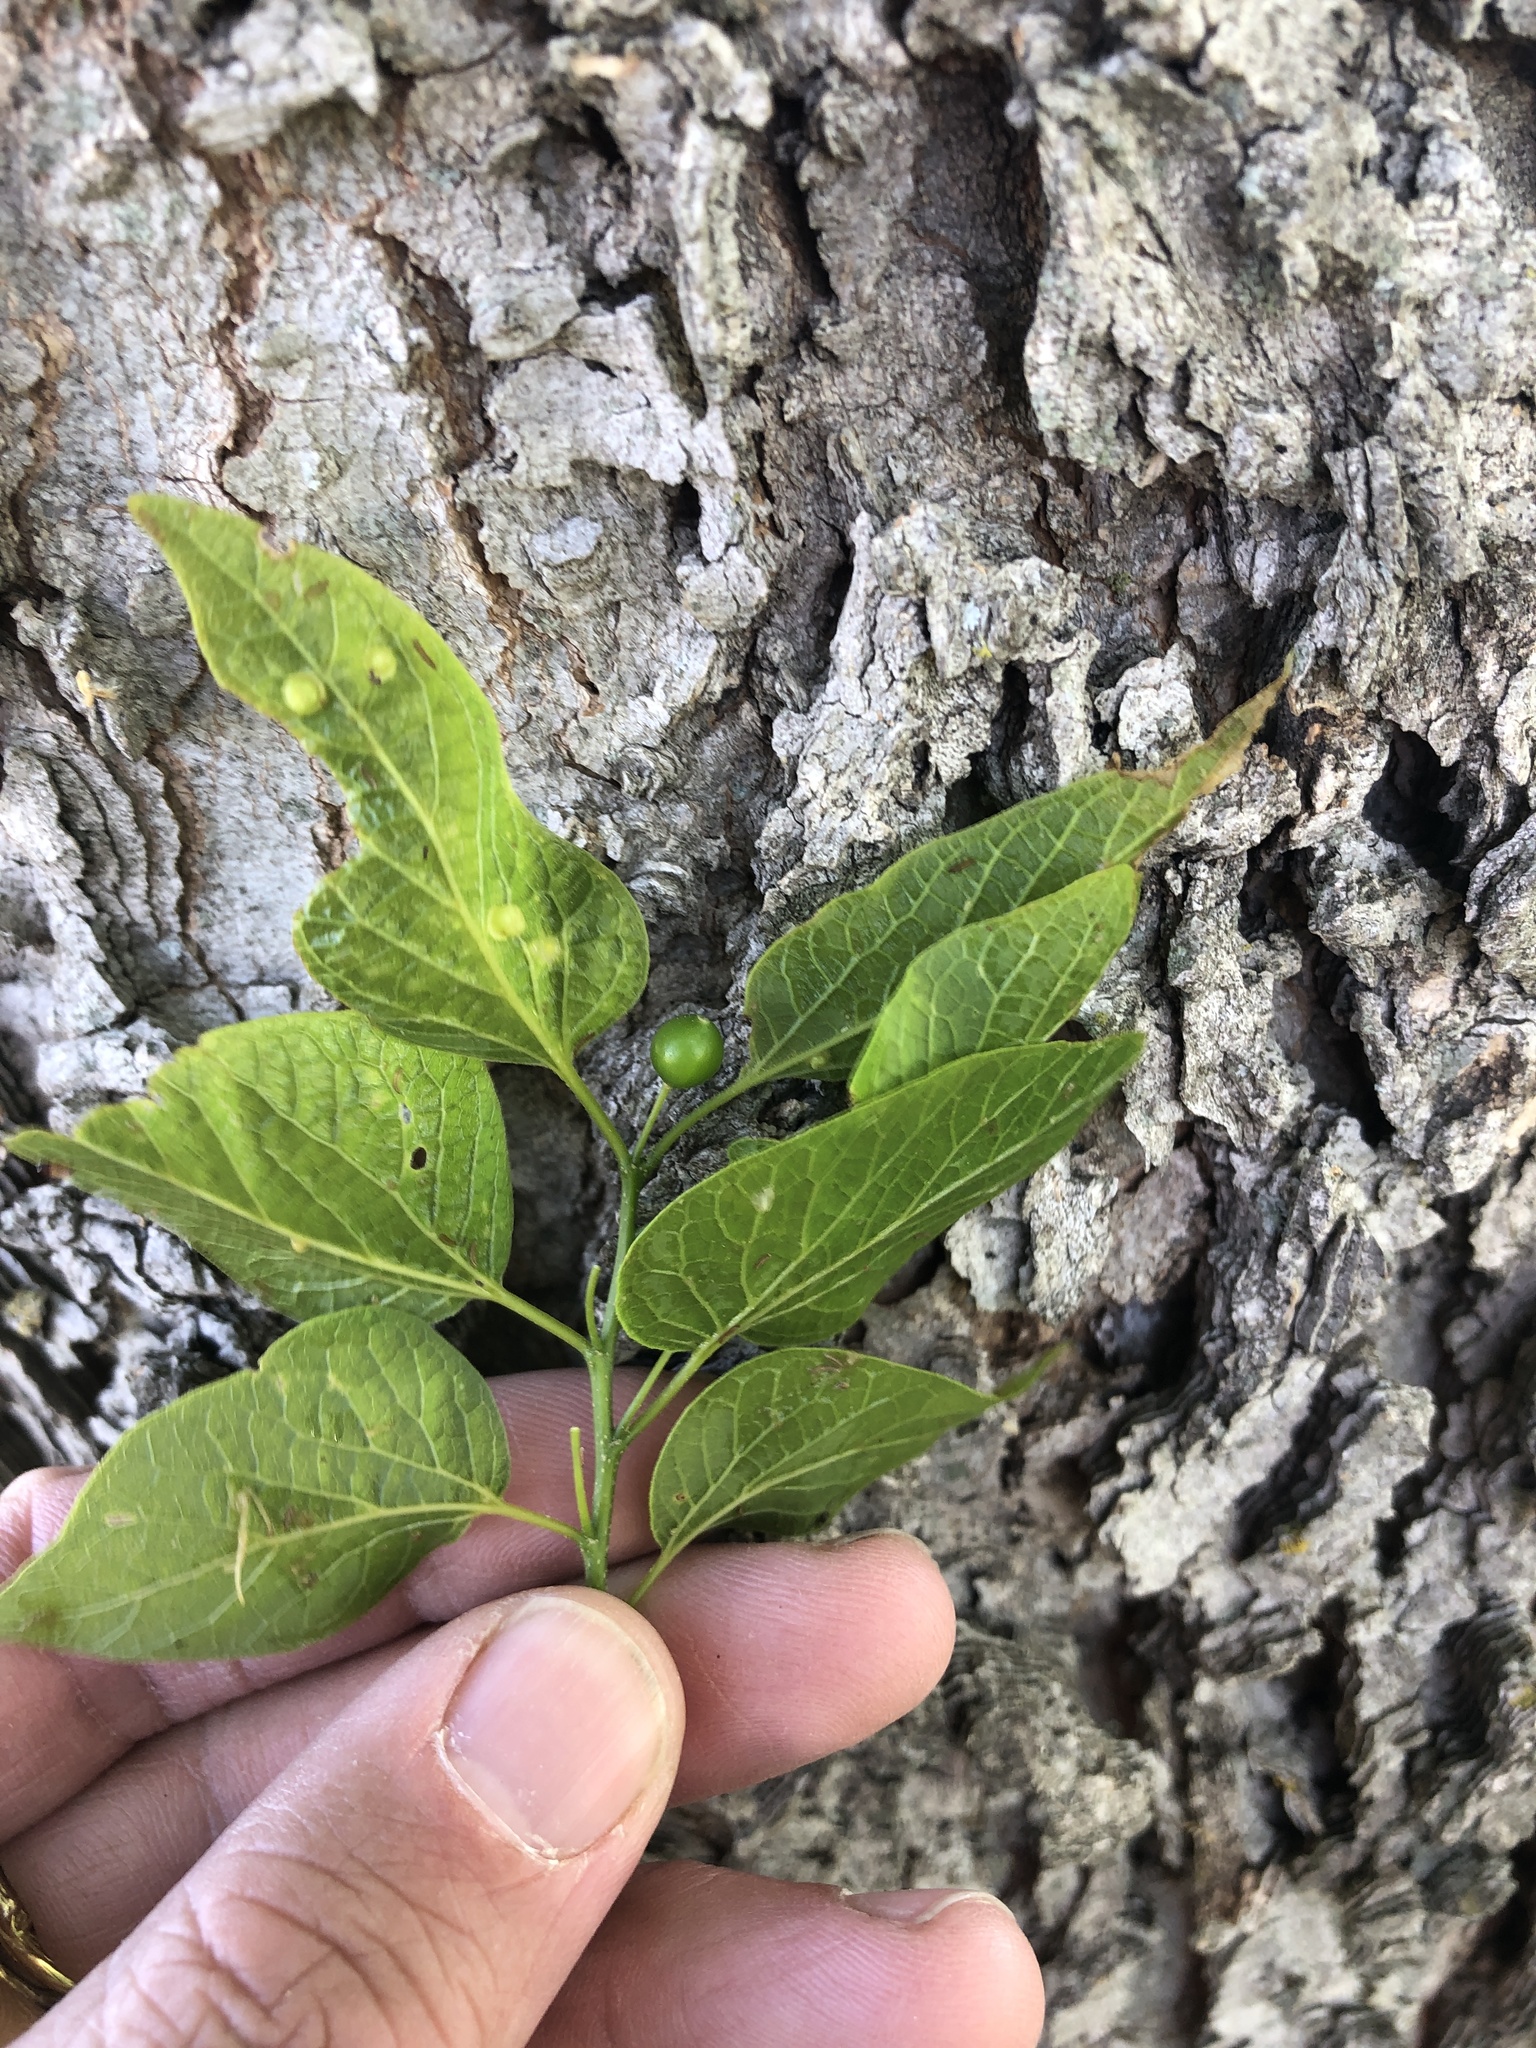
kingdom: Plantae
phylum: Tracheophyta
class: Magnoliopsida
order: Rosales
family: Cannabaceae
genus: Celtis
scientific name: Celtis laevigata
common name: Sugarberry
